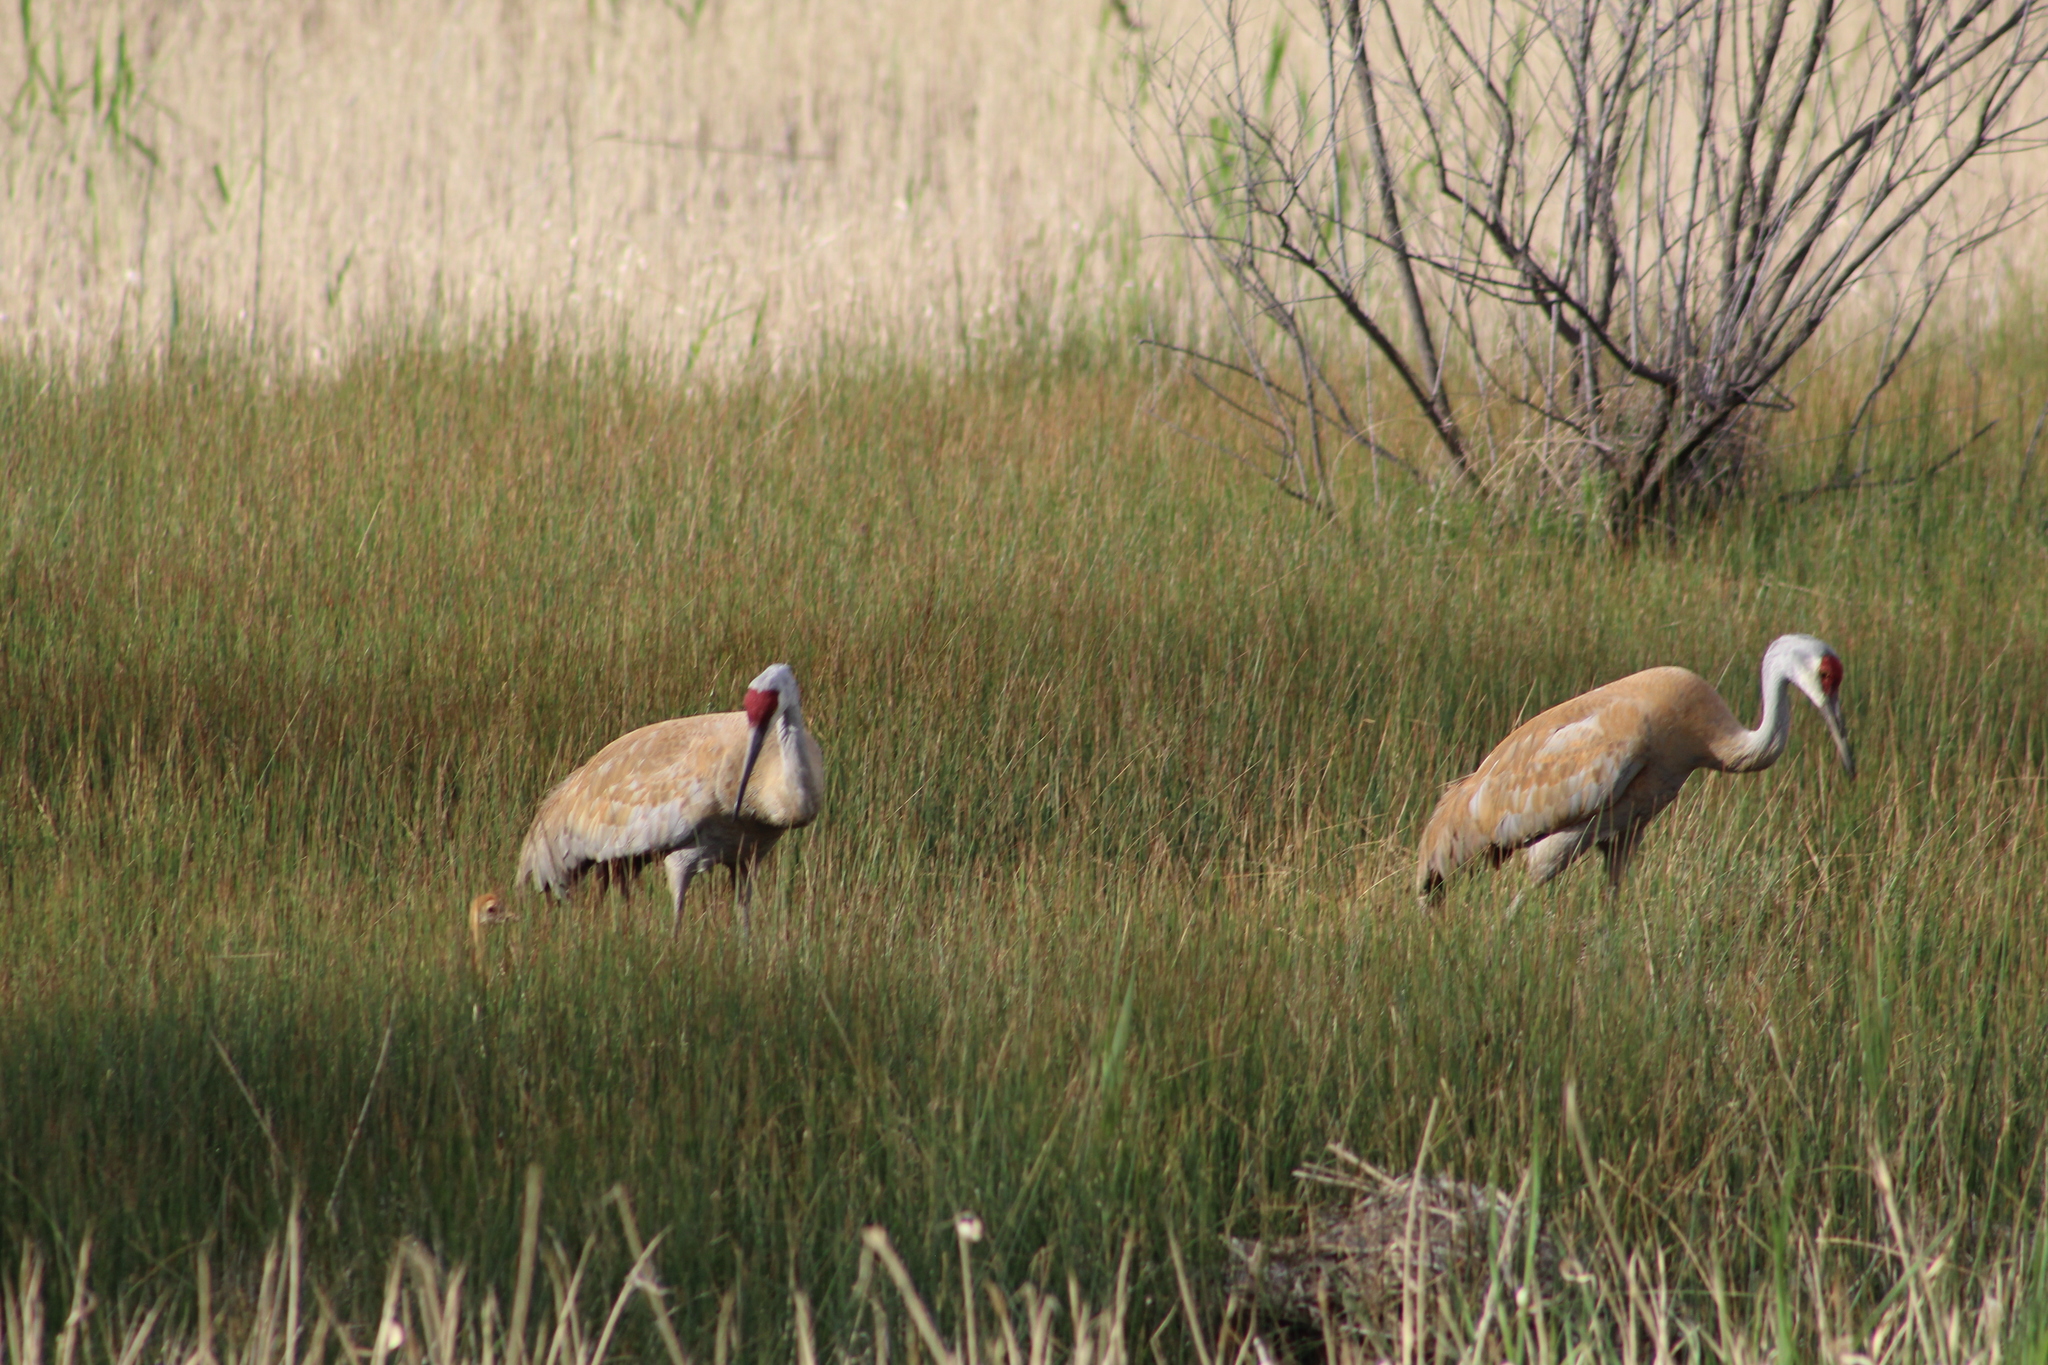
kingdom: Animalia
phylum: Chordata
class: Aves
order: Gruiformes
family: Gruidae
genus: Grus
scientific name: Grus canadensis
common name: Sandhill crane
